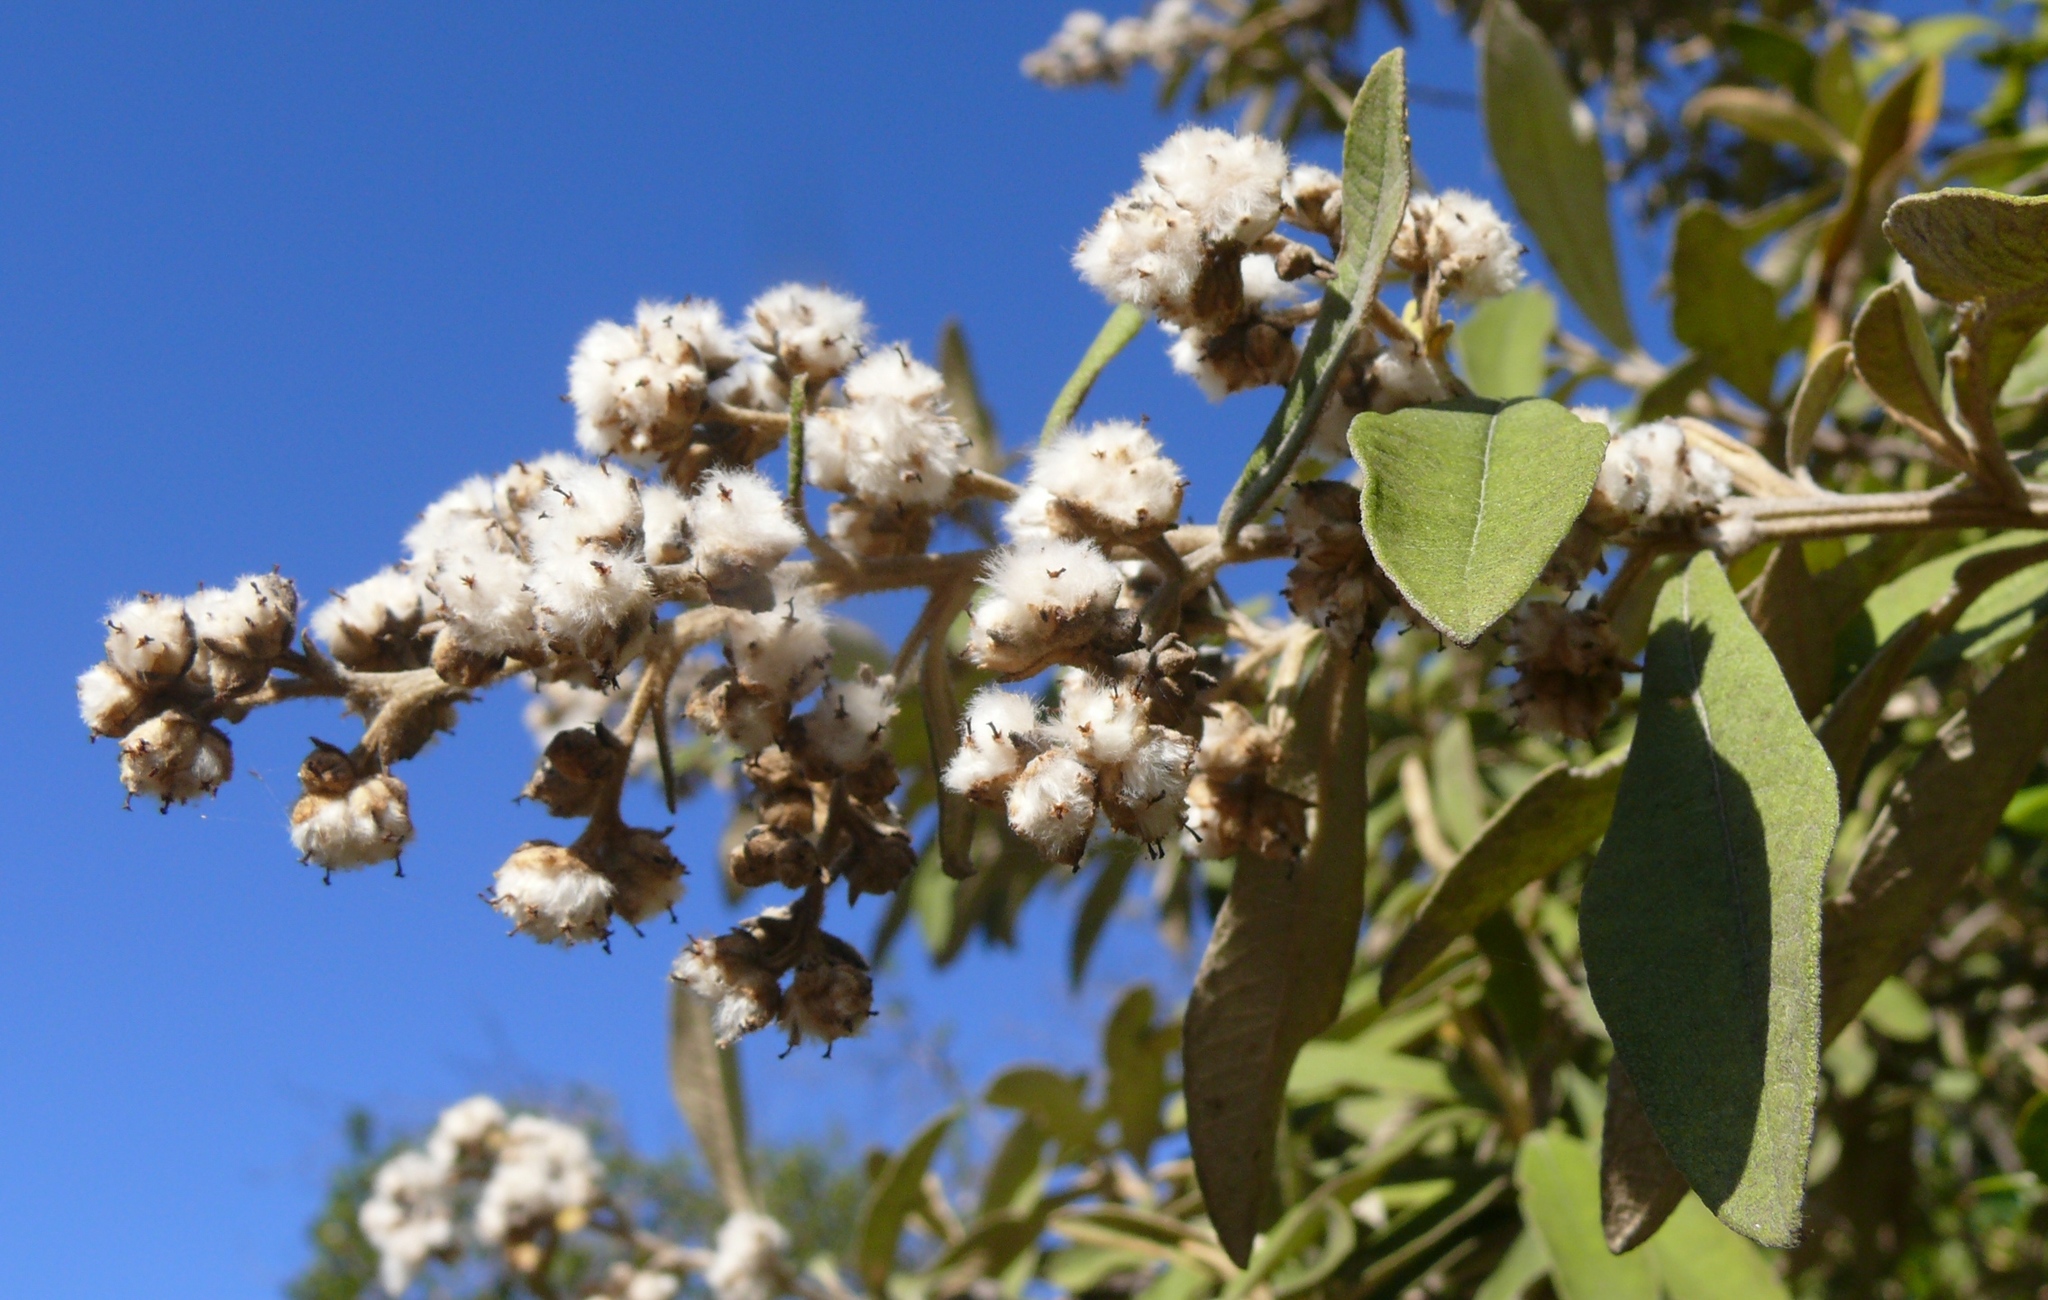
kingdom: Plantae
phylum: Tracheophyta
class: Magnoliopsida
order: Asterales
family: Asteraceae
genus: Tarchonanthus
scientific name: Tarchonanthus littoralis
